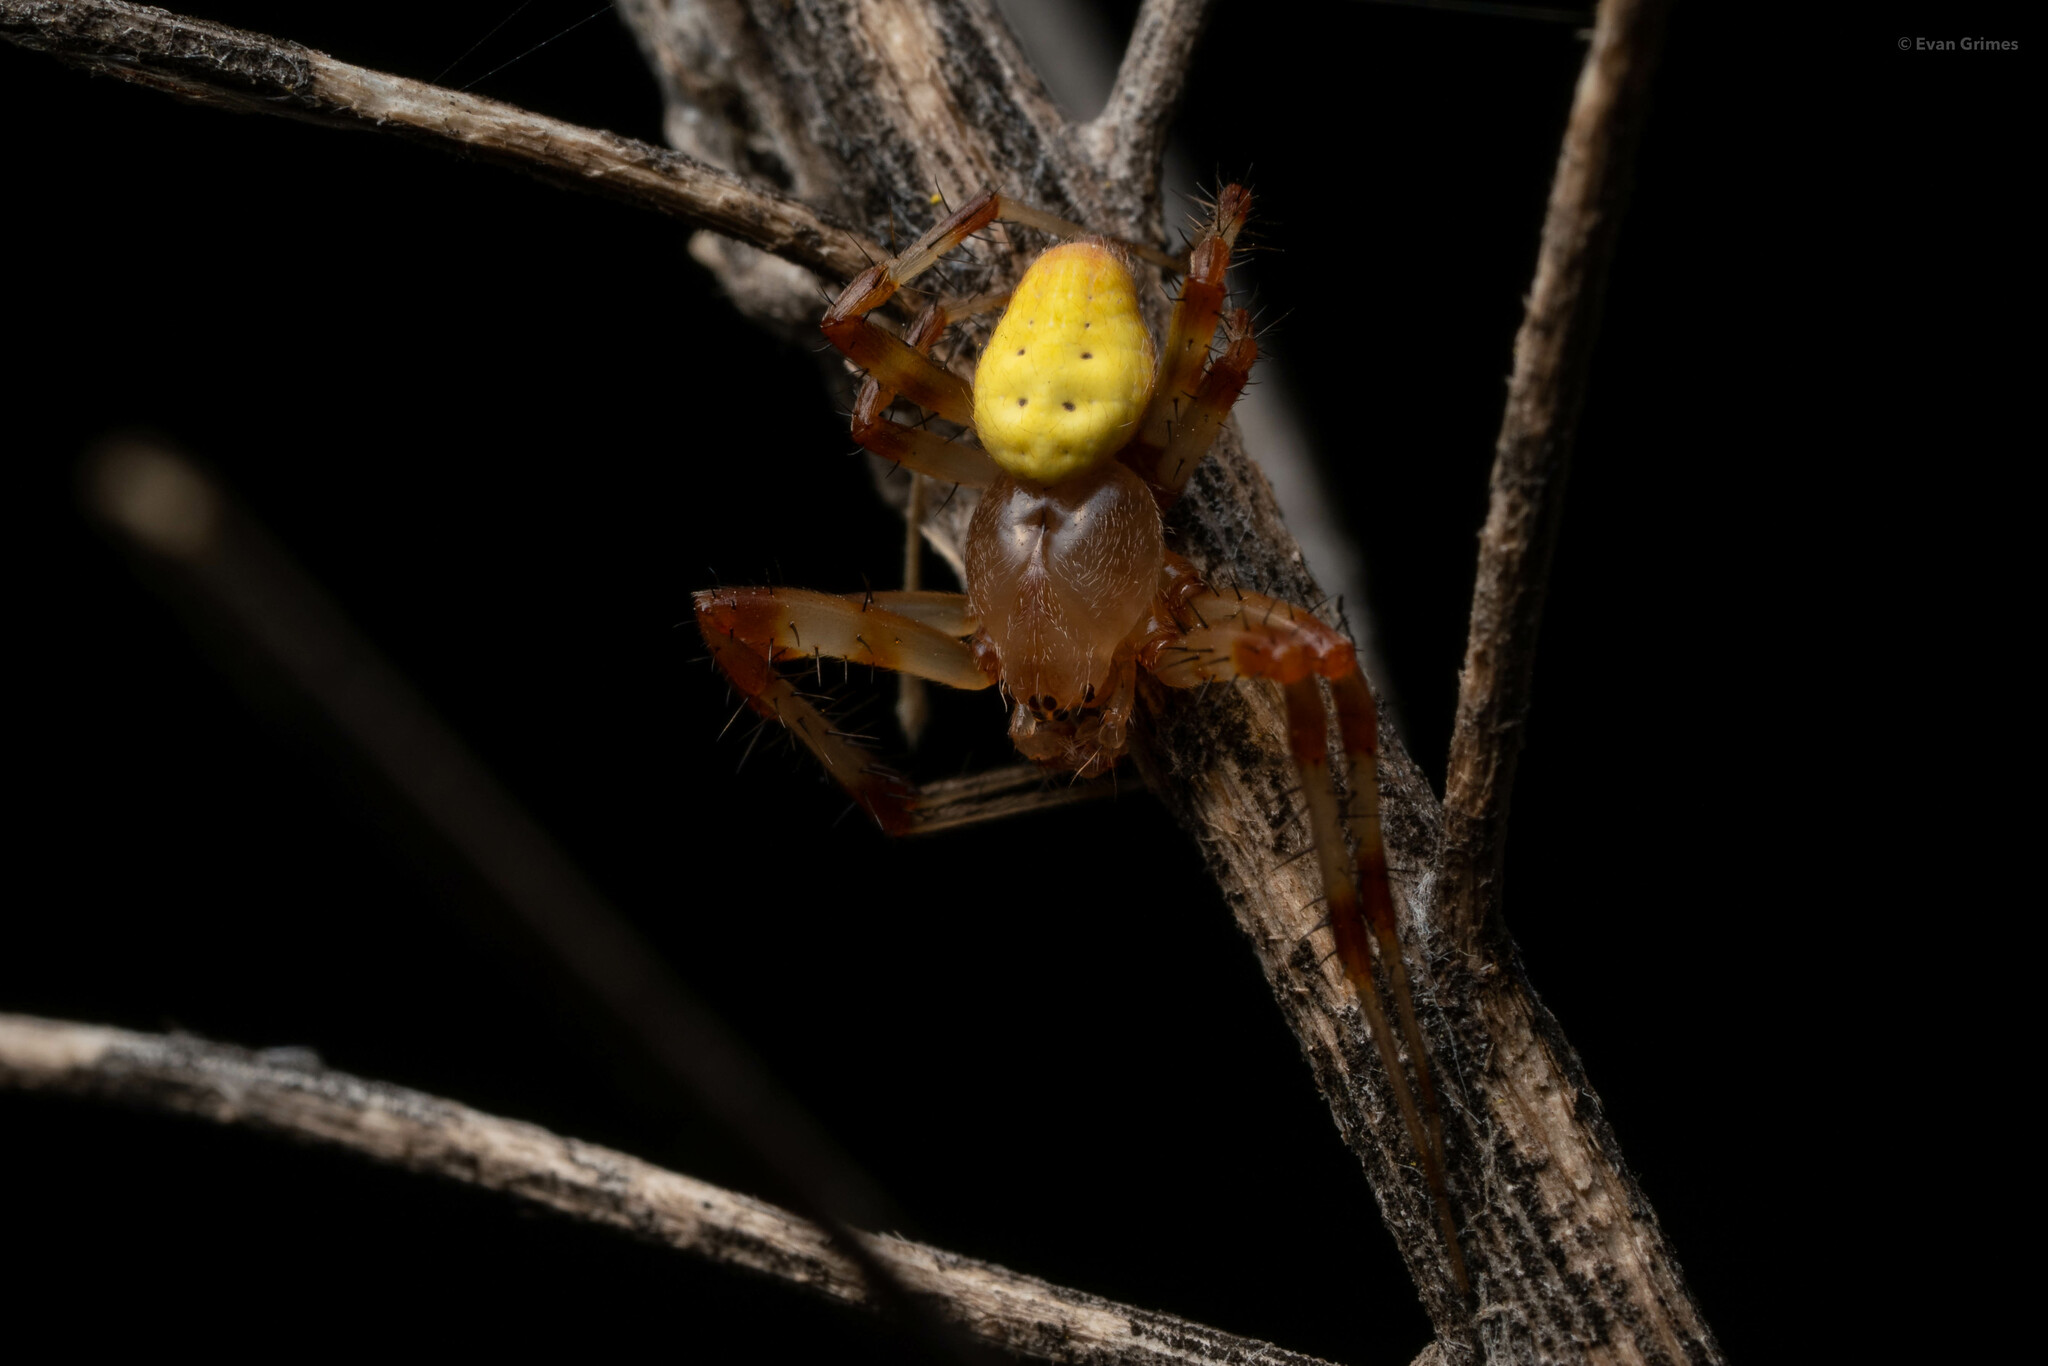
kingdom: Animalia
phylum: Arthropoda
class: Arachnida
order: Araneae
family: Araneidae
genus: Araneus
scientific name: Araneus trifolium
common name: Shamrock orbweaver
